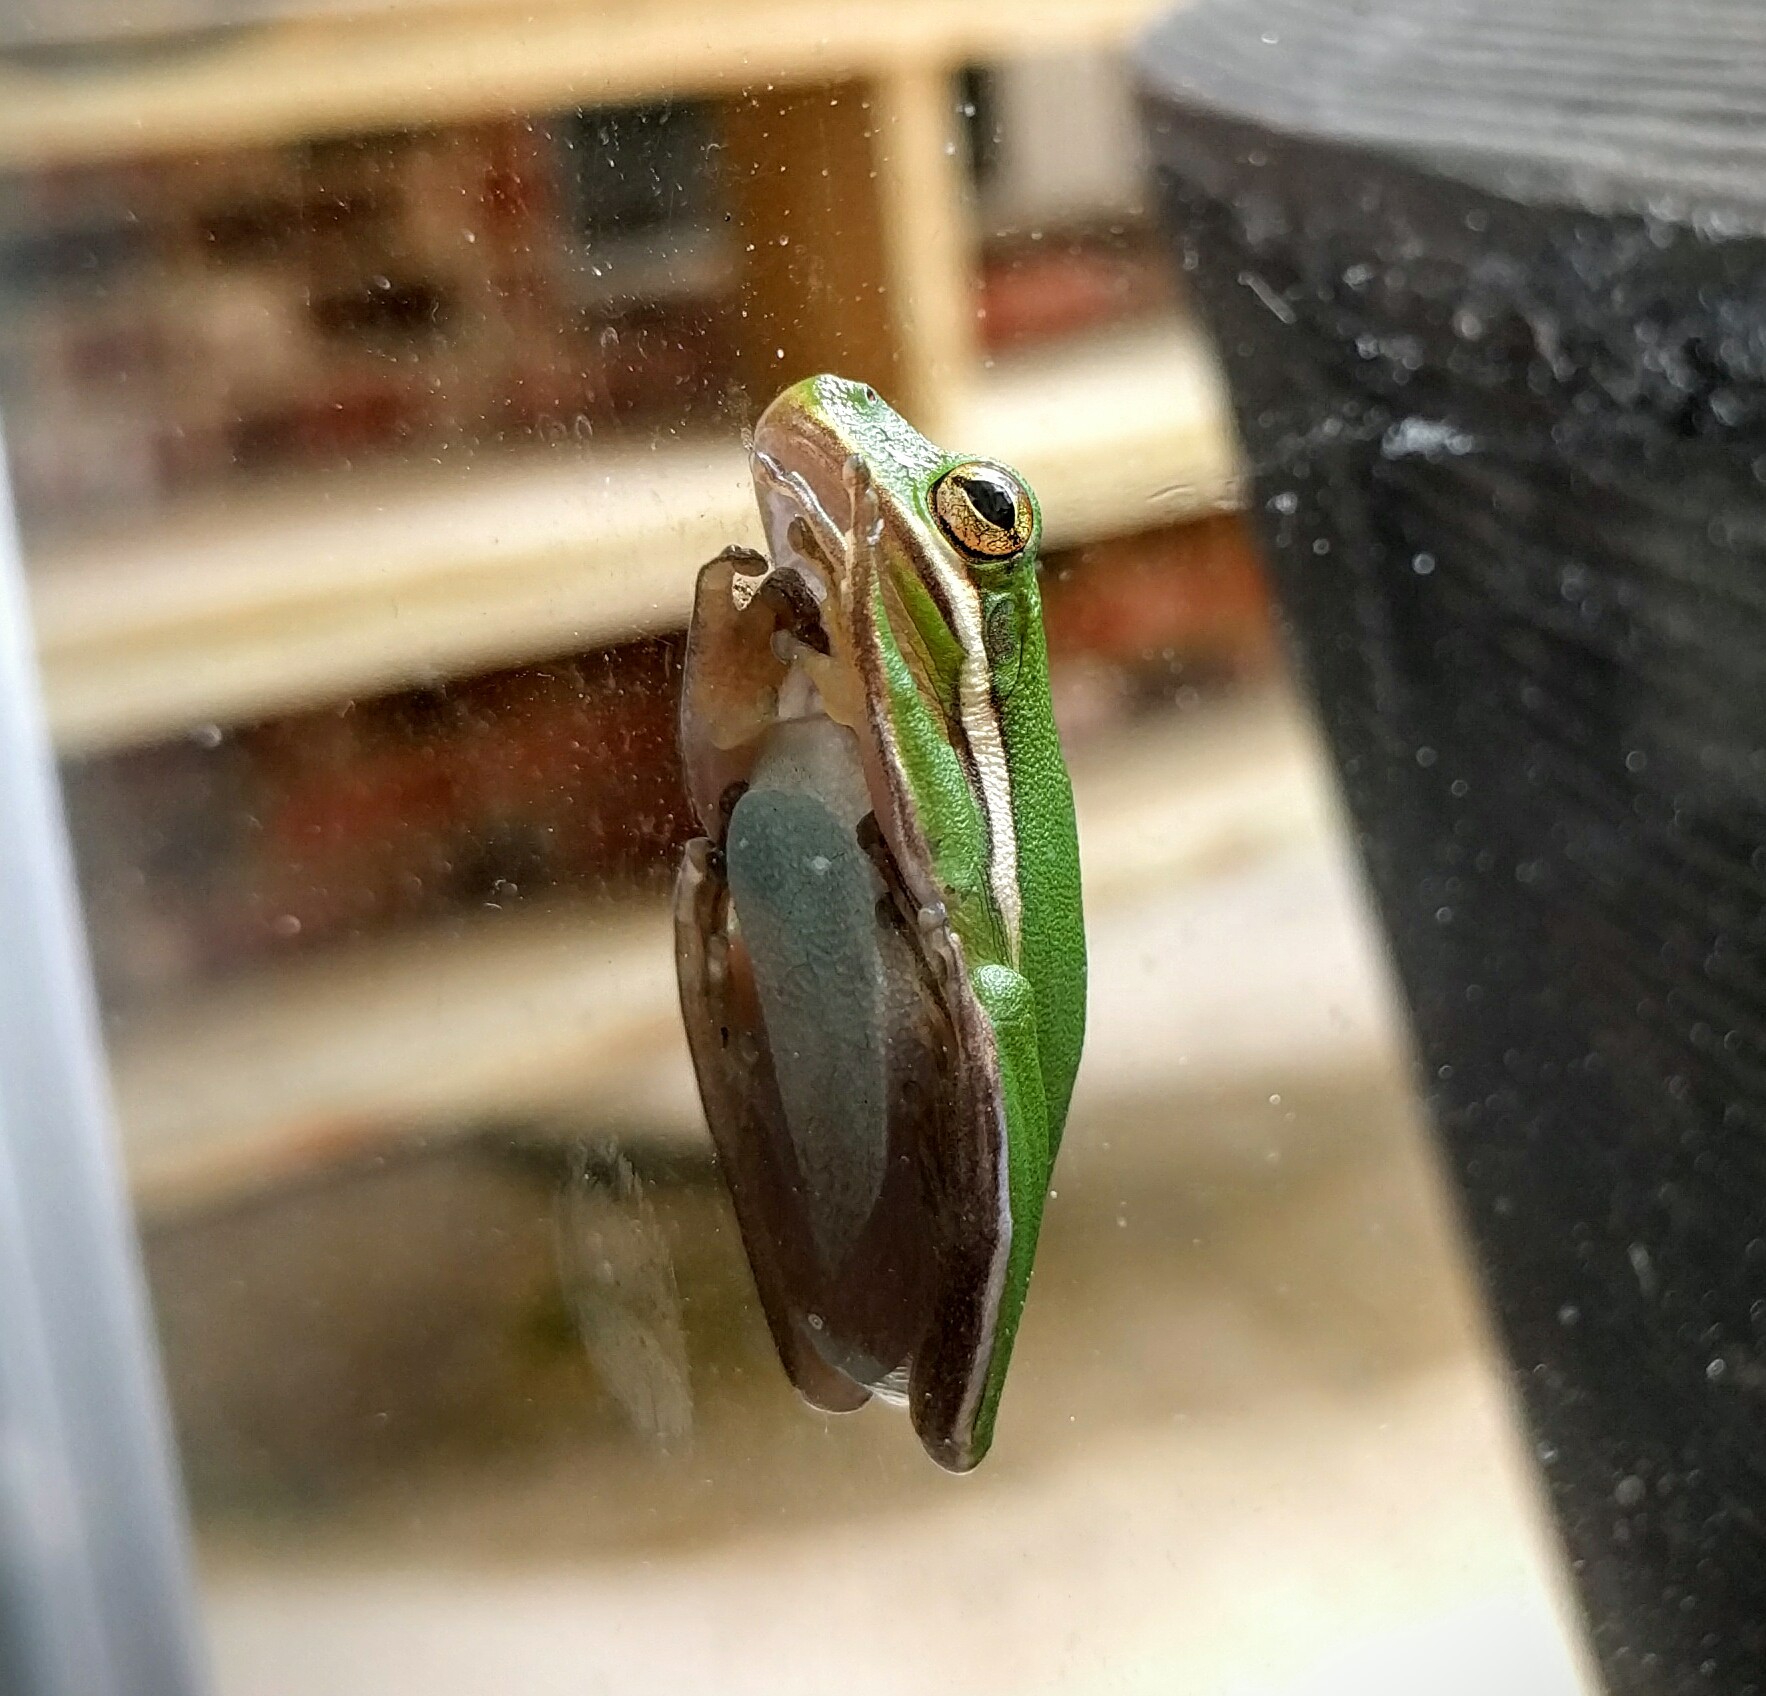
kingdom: Animalia
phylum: Chordata
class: Amphibia
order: Anura
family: Hylidae
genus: Dryophytes
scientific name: Dryophytes cinereus
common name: Green treefrog
